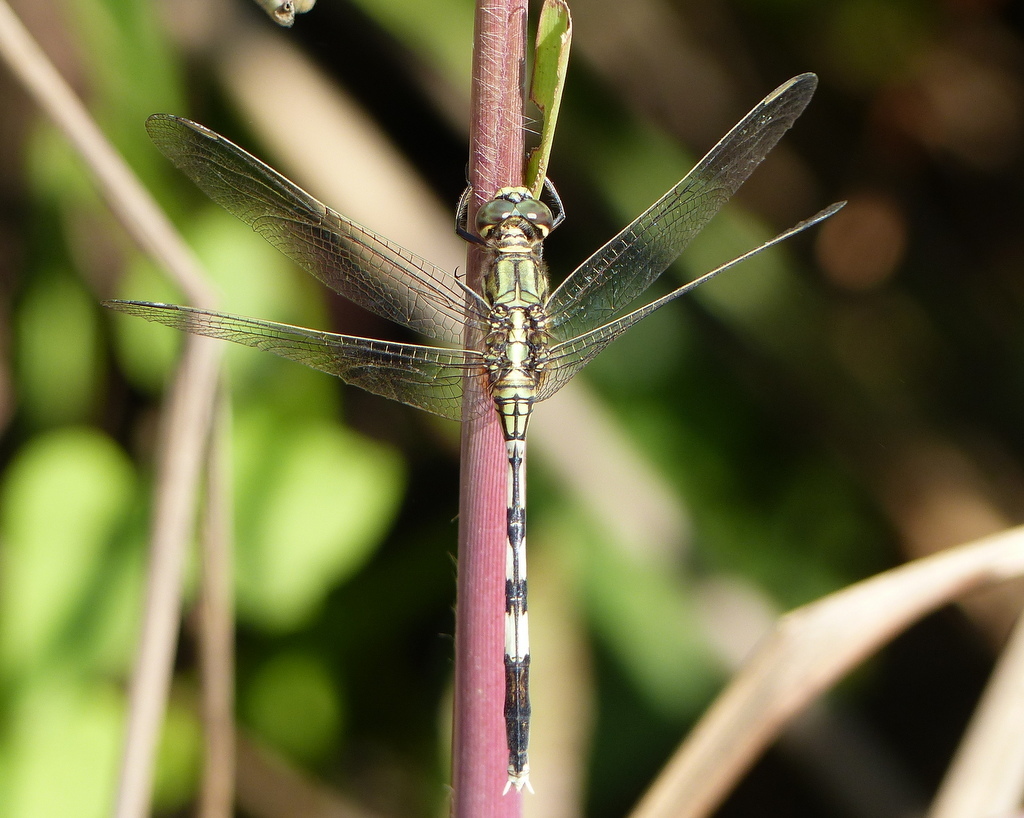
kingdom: Animalia
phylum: Arthropoda
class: Insecta
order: Odonata
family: Libellulidae
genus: Orthetrum
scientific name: Orthetrum sabina
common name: Slender skimmer
